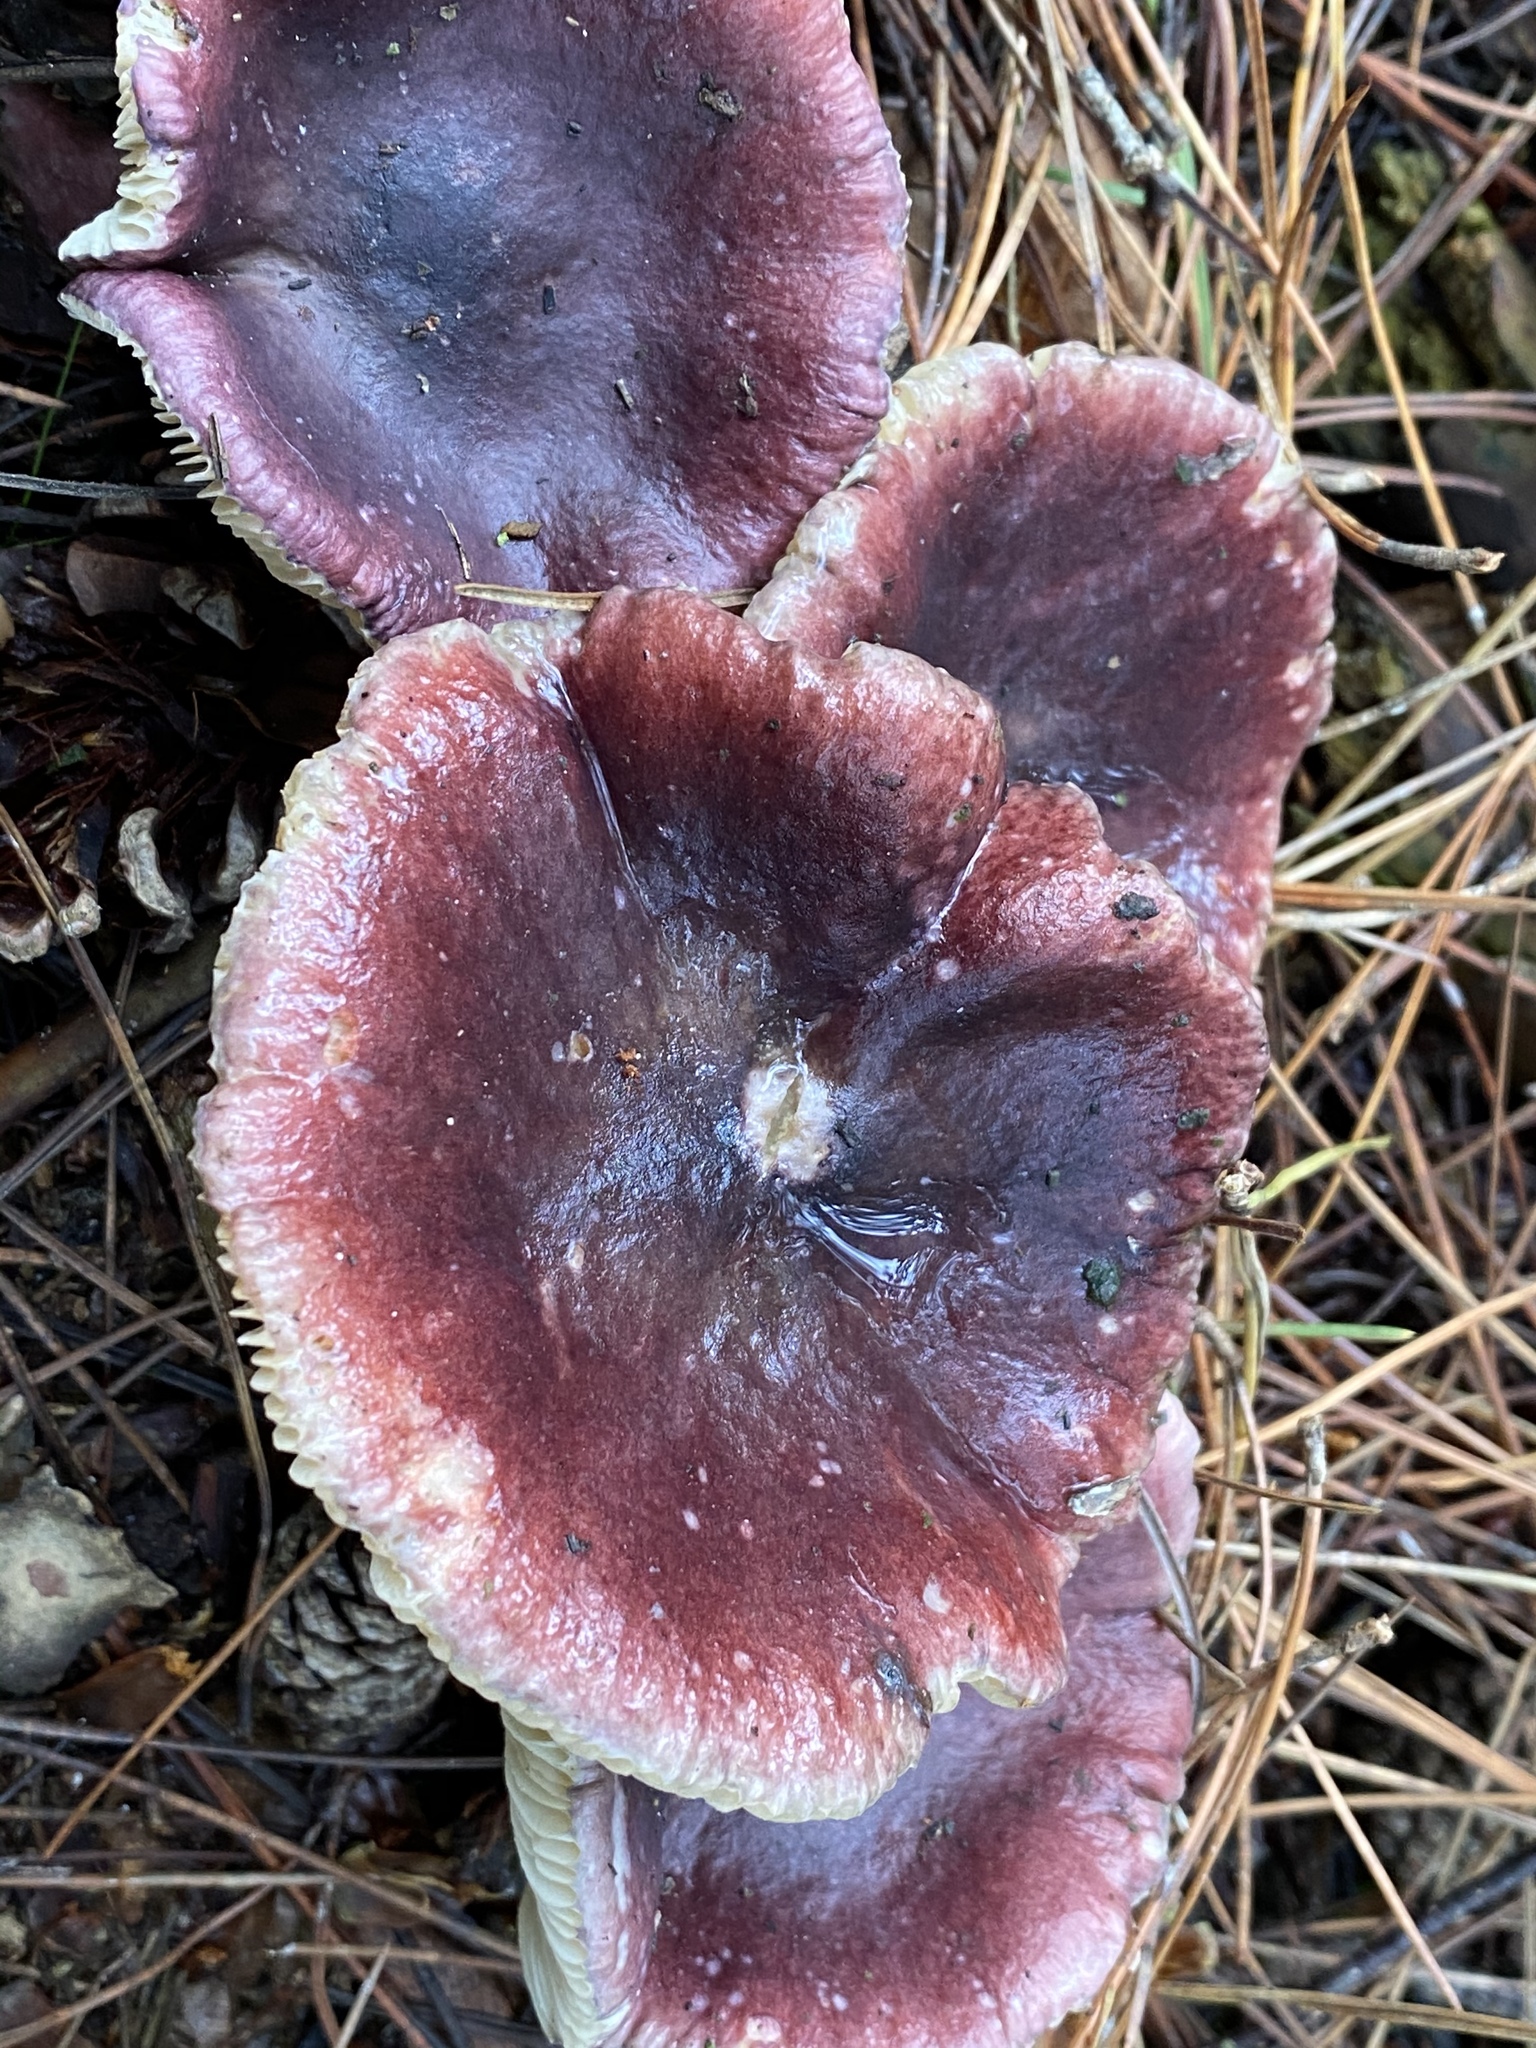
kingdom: Fungi
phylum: Basidiomycota
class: Agaricomycetes
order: Russulales
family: Russulaceae
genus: Russula
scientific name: Russula sardonia
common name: Primrose brittlegill
